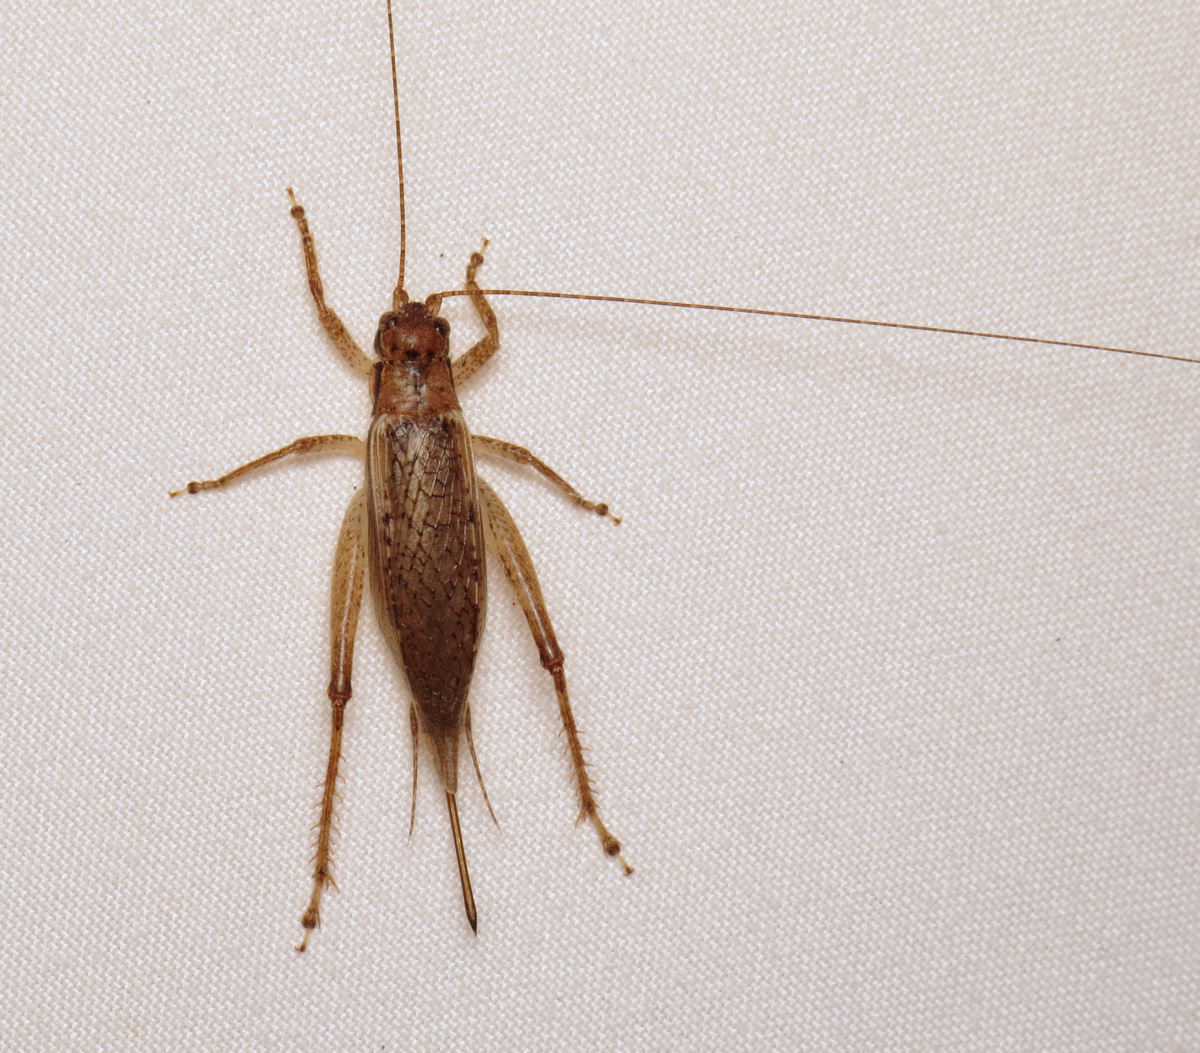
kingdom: Animalia
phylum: Arthropoda
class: Insecta
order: Orthoptera
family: Gryllidae
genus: Hapithus
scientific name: Hapithus saltator
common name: Jumping bush cricket
